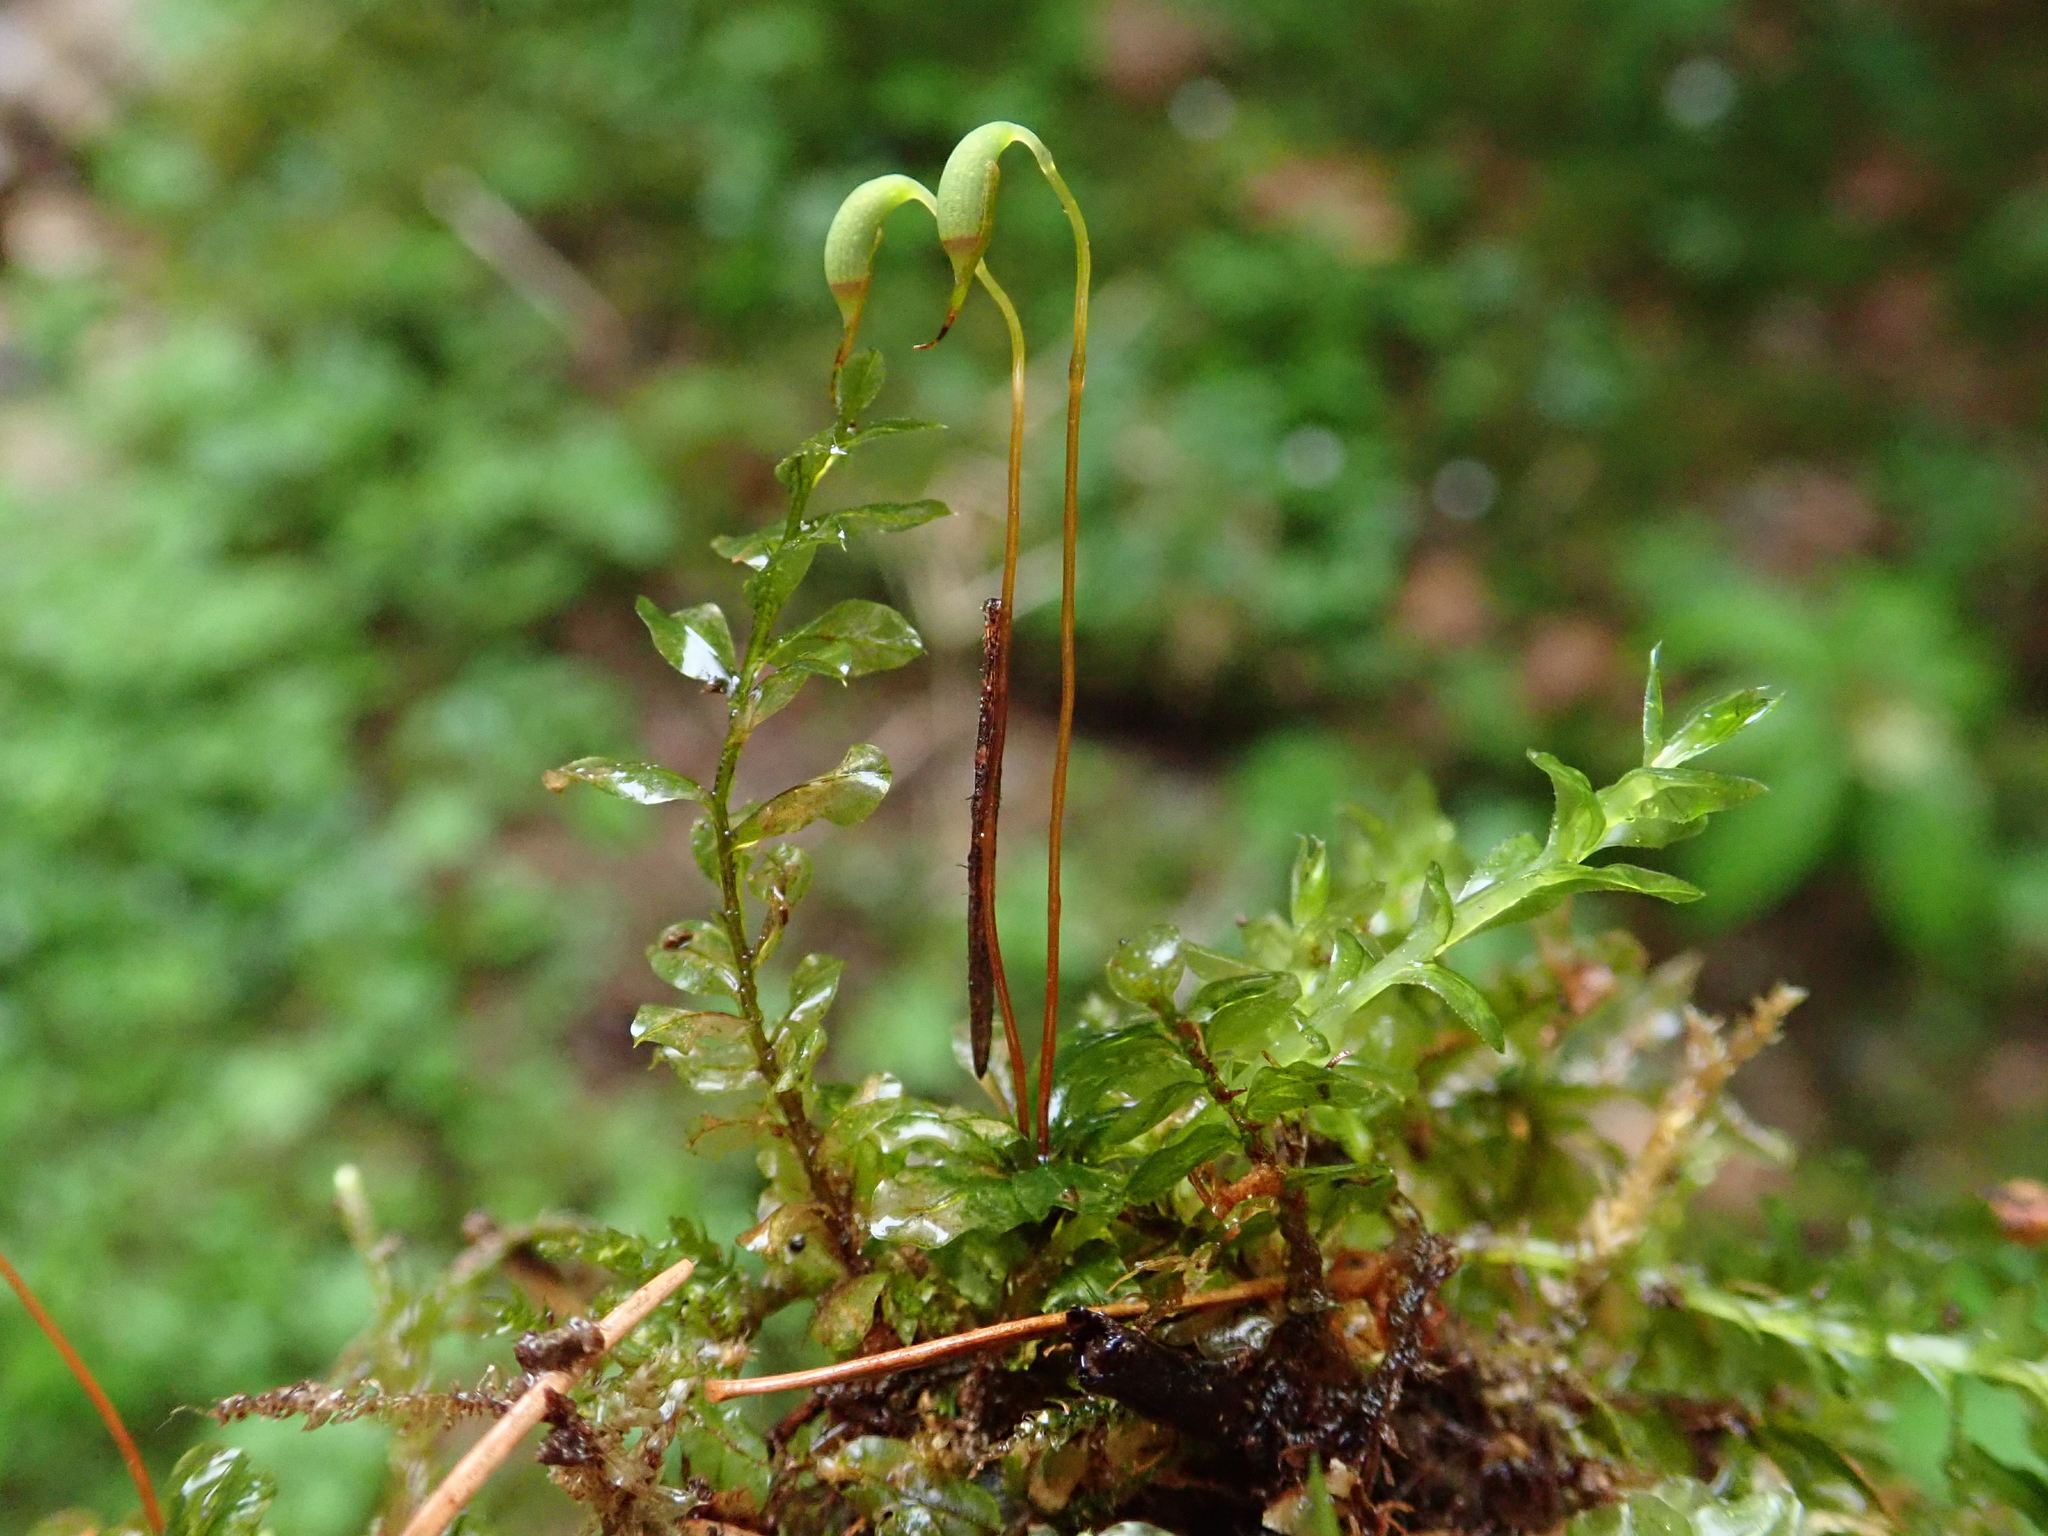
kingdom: Plantae
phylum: Bryophyta
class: Bryopsida
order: Bryales
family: Mniaceae
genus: Plagiomnium
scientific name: Plagiomnium rostratum
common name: Long-beaked leafy moss
